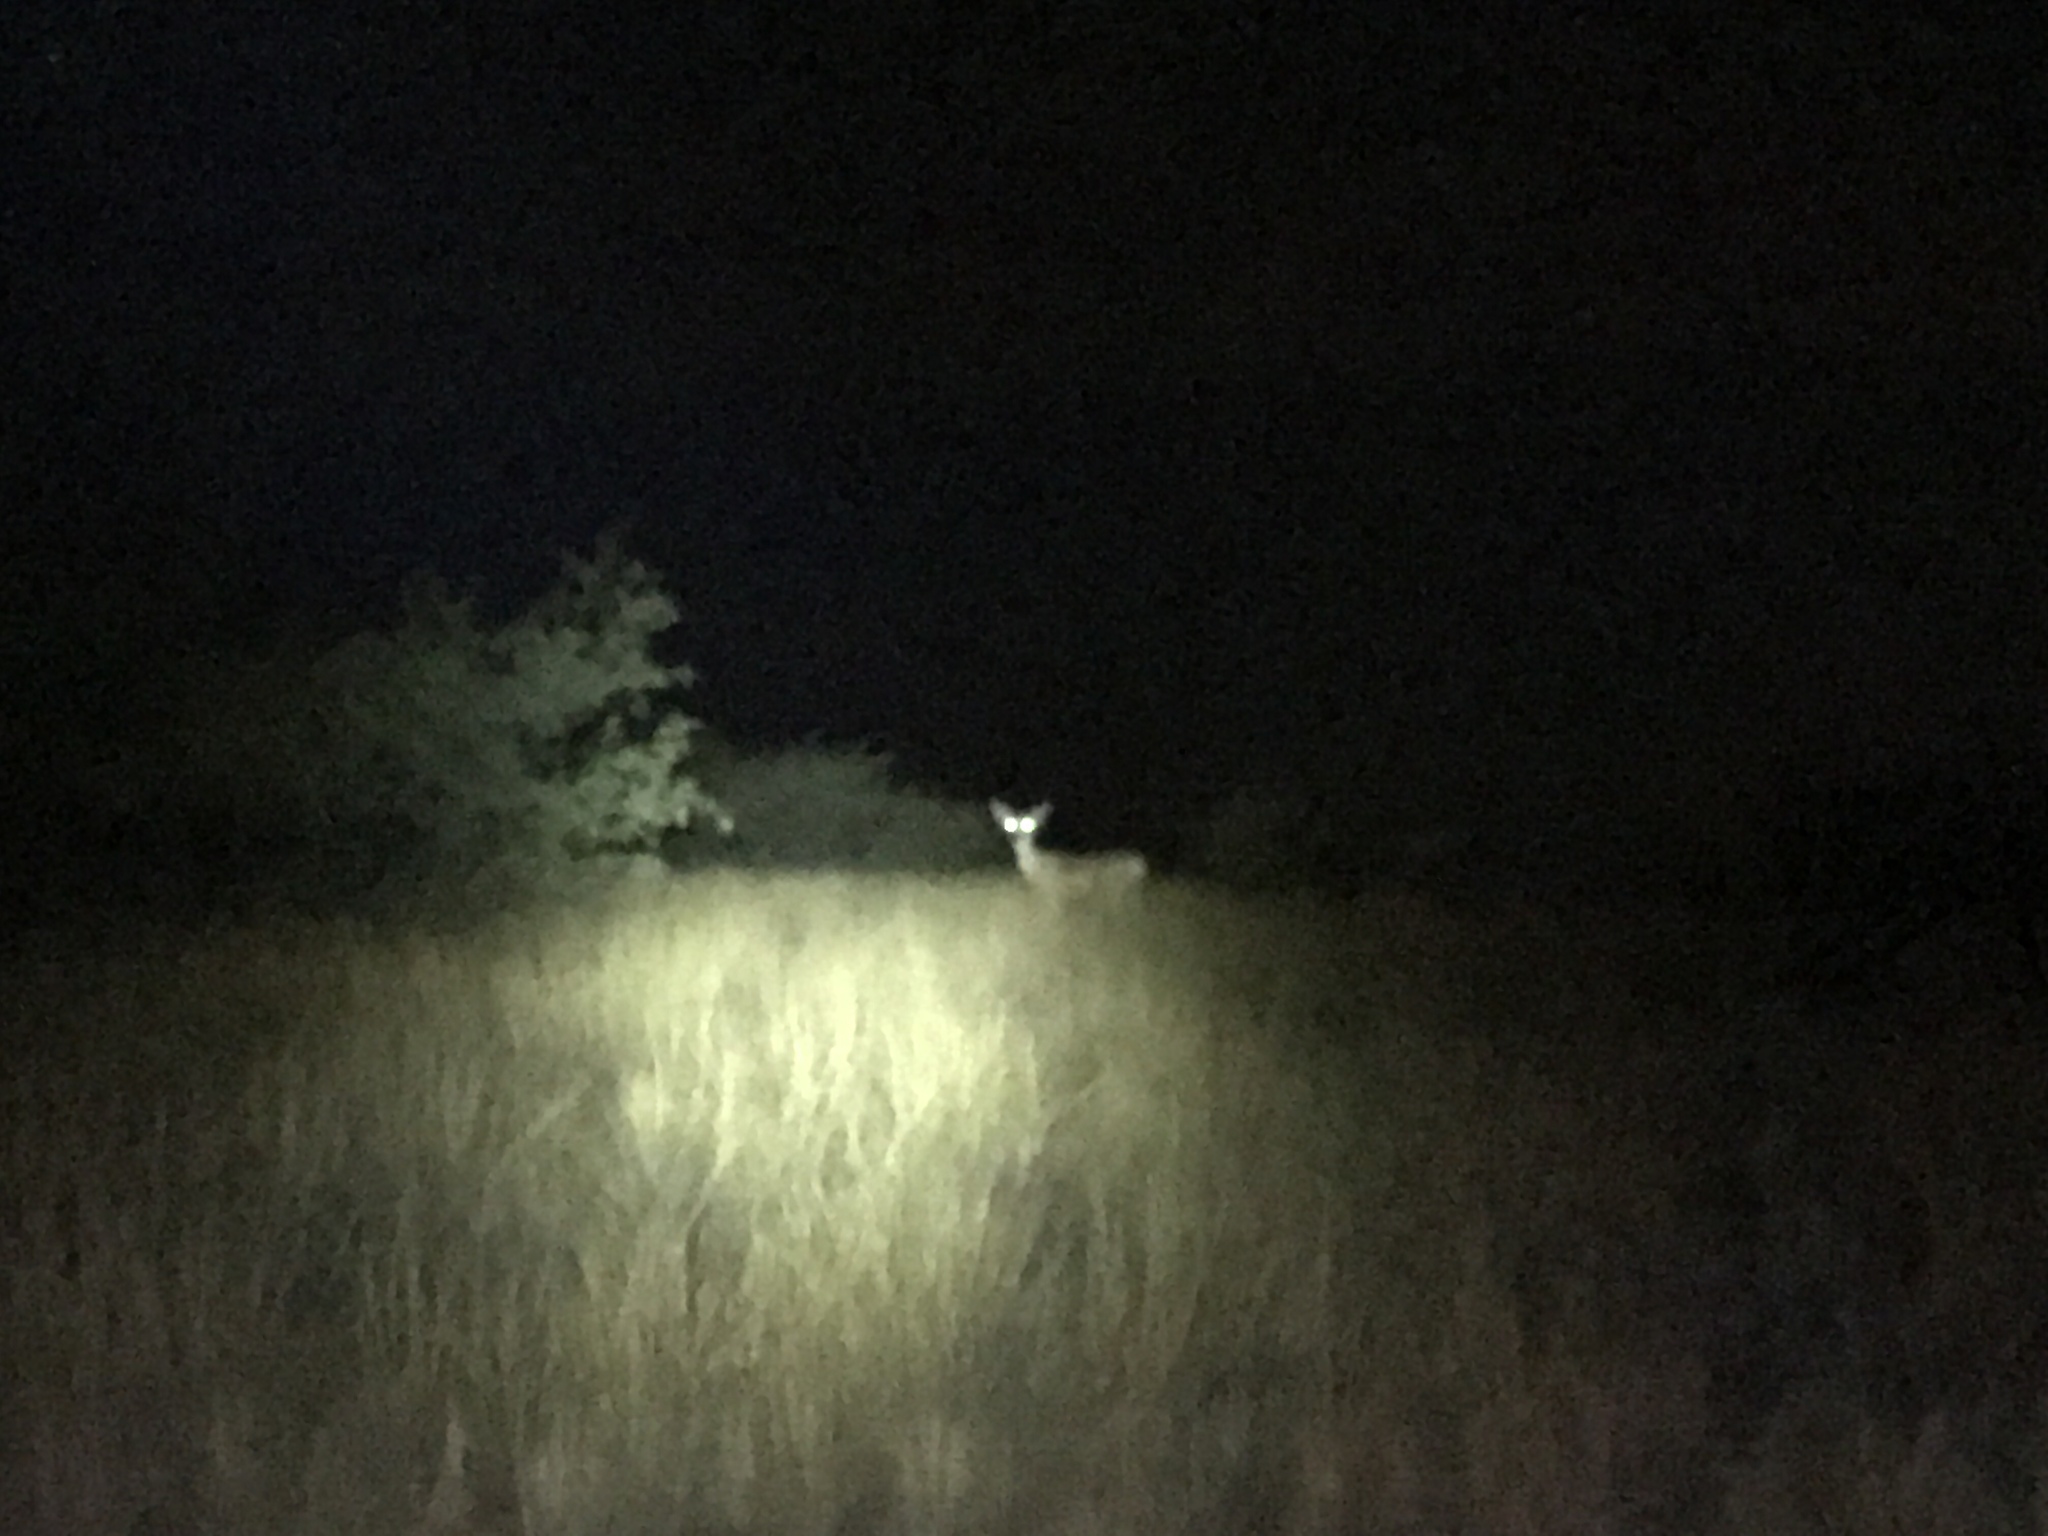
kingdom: Animalia
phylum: Chordata
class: Mammalia
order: Artiodactyla
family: Cervidae
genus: Odocoileus
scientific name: Odocoileus hemionus
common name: Mule deer
